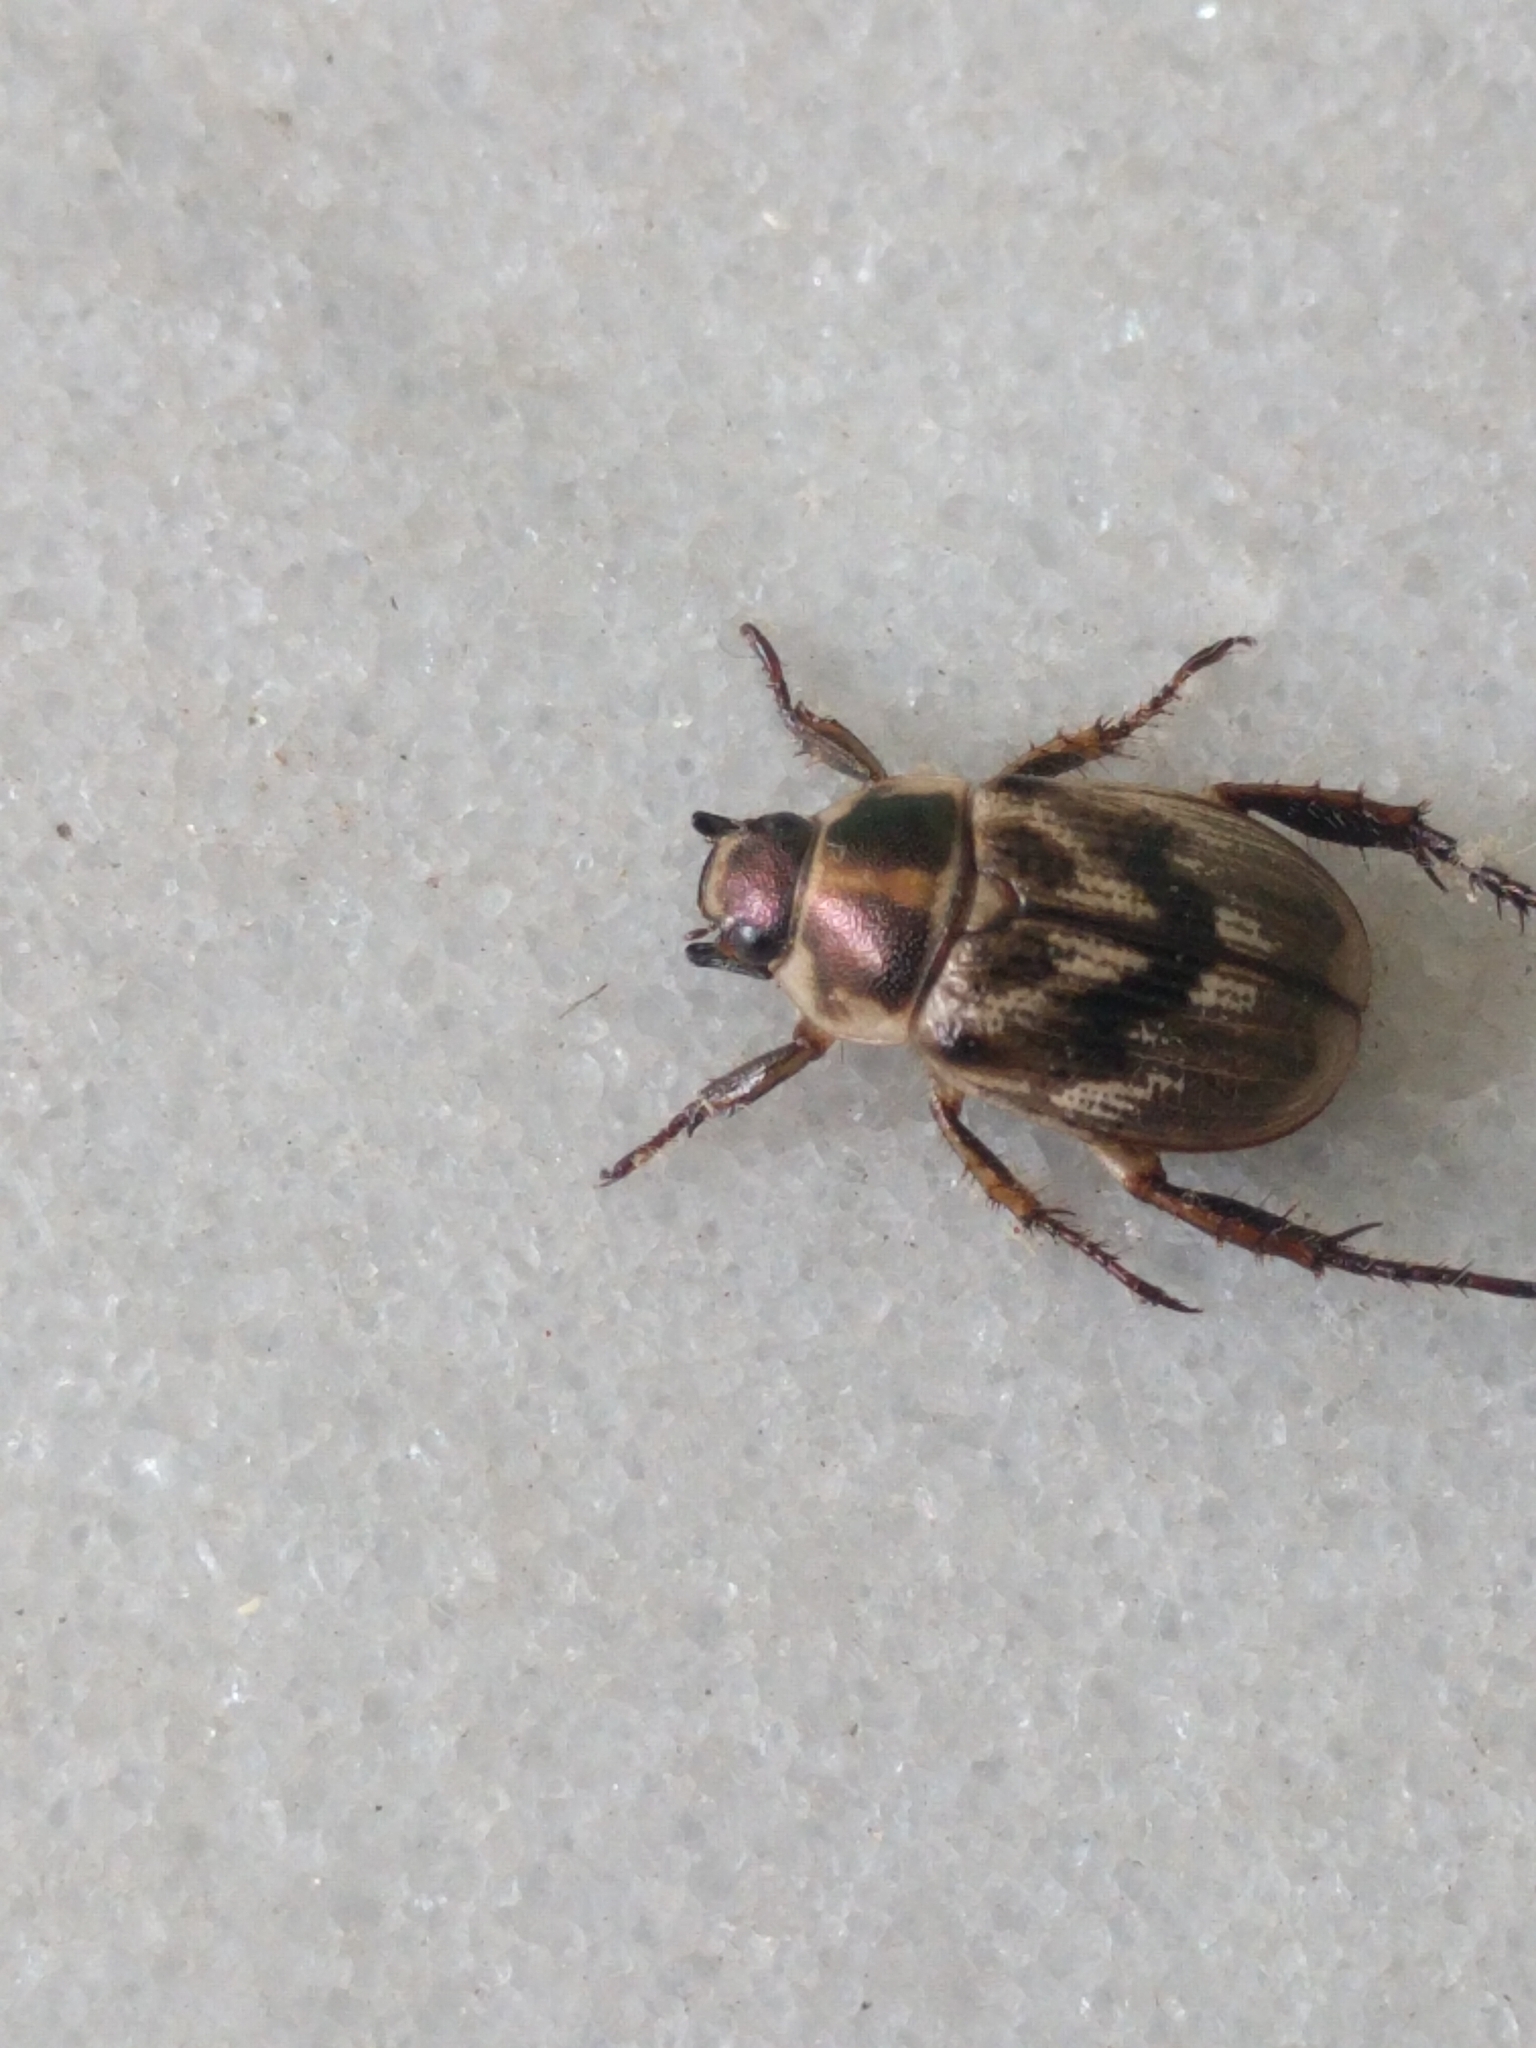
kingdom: Animalia
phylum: Arthropoda
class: Insecta
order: Coleoptera
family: Scarabaeidae
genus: Exomala
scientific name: Exomala orientalis
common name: Oriental beetle
